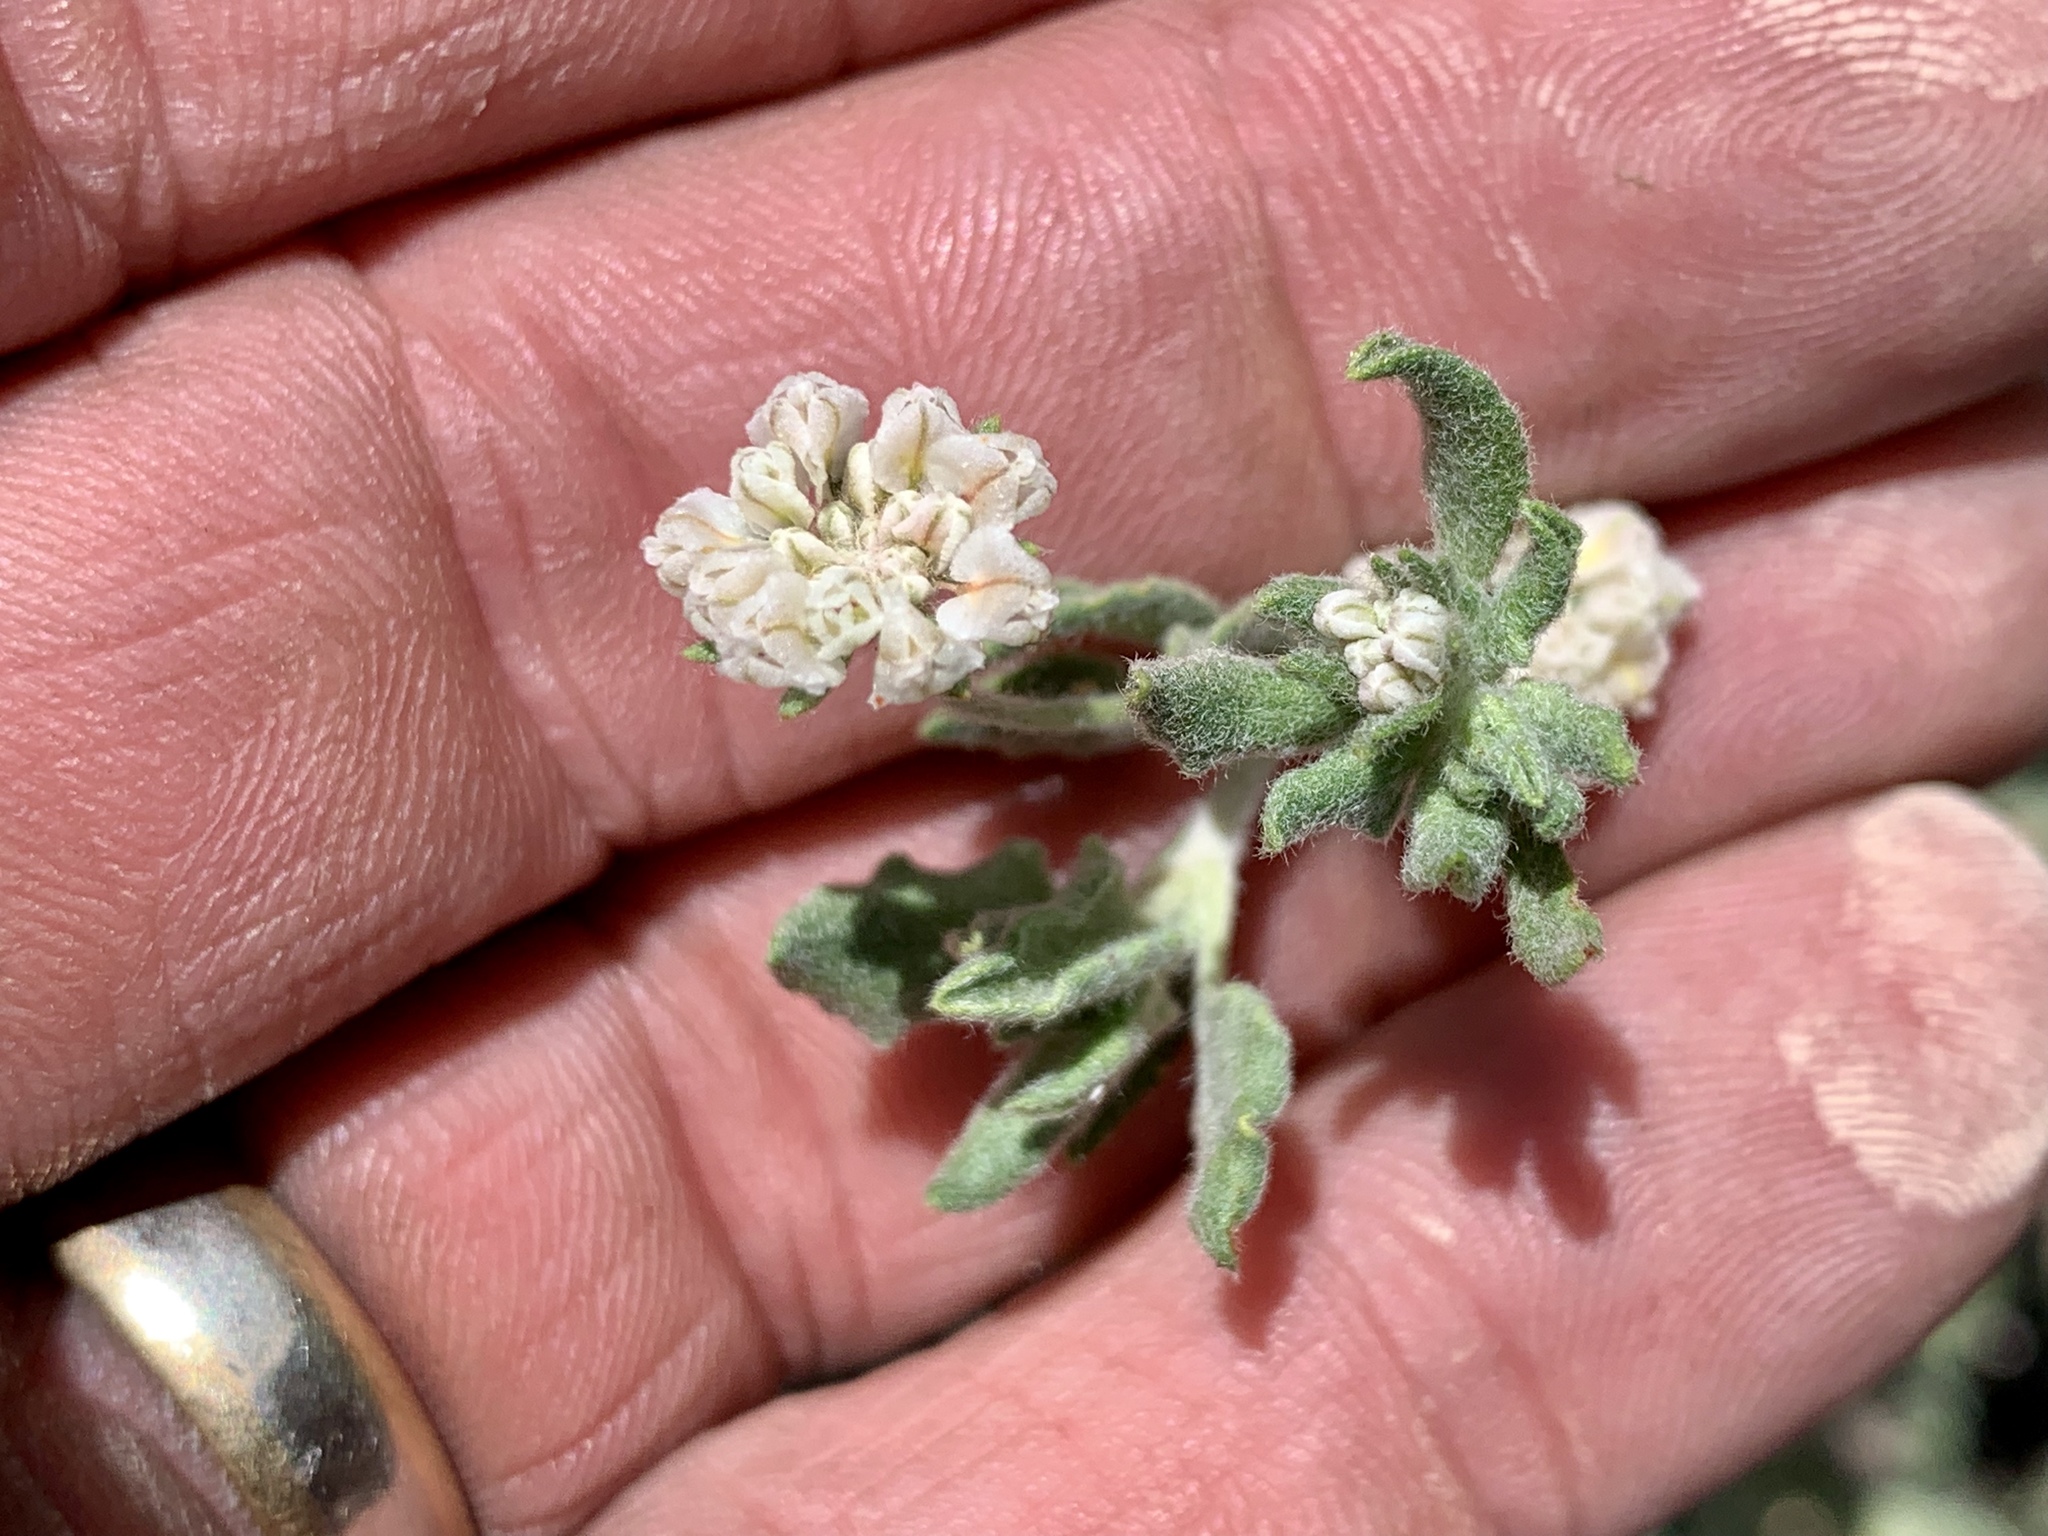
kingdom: Plantae
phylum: Tracheophyta
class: Magnoliopsida
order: Caryophyllales
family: Polygonaceae
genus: Eriogonum
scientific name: Eriogonum abertianum
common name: Abert's wild buckwheat
